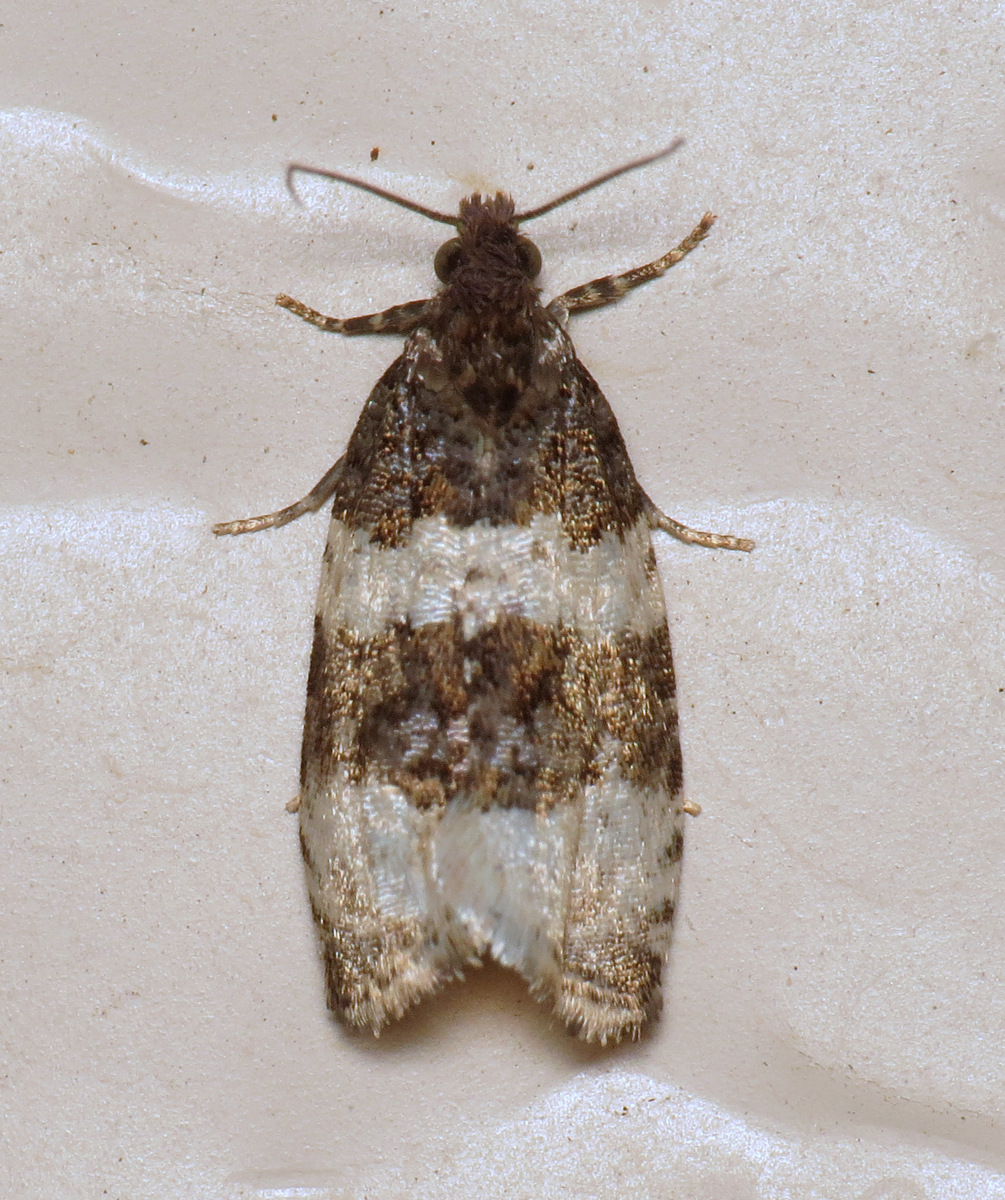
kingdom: Animalia
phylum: Arthropoda
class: Insecta
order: Lepidoptera
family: Tortricidae
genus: Olethreutes
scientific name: Olethreutes bipartitana
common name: Divided olethreutes moth
